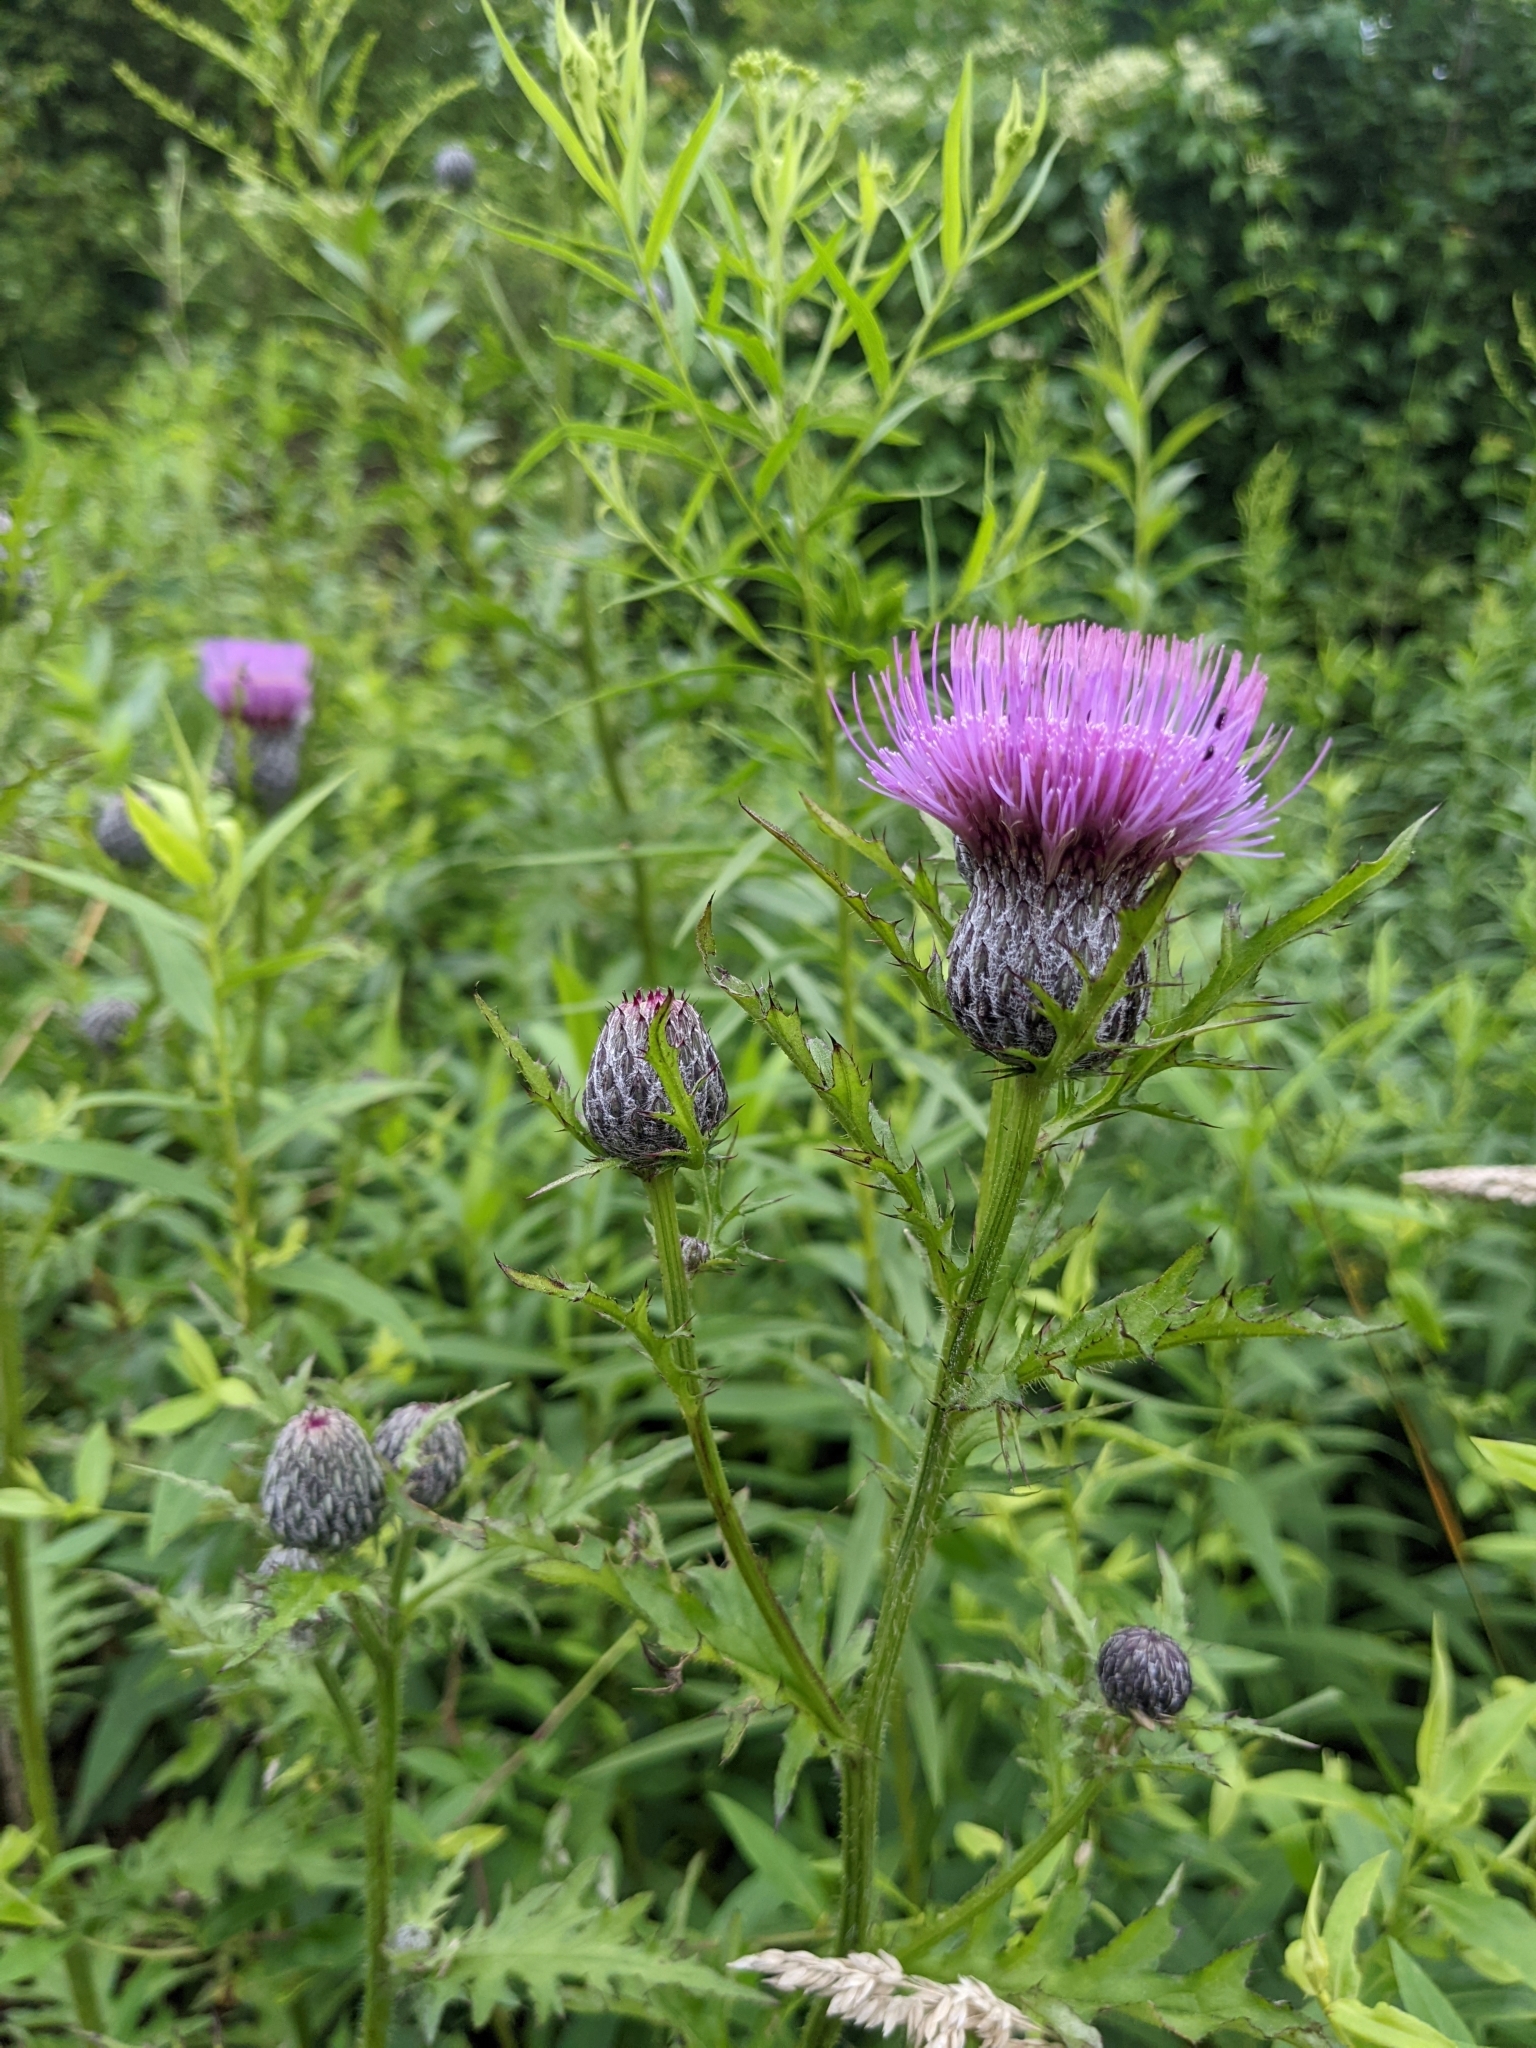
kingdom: Plantae
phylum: Tracheophyta
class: Magnoliopsida
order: Asterales
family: Asteraceae
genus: Cirsium
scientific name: Cirsium muticum
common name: Dunce-nettle
